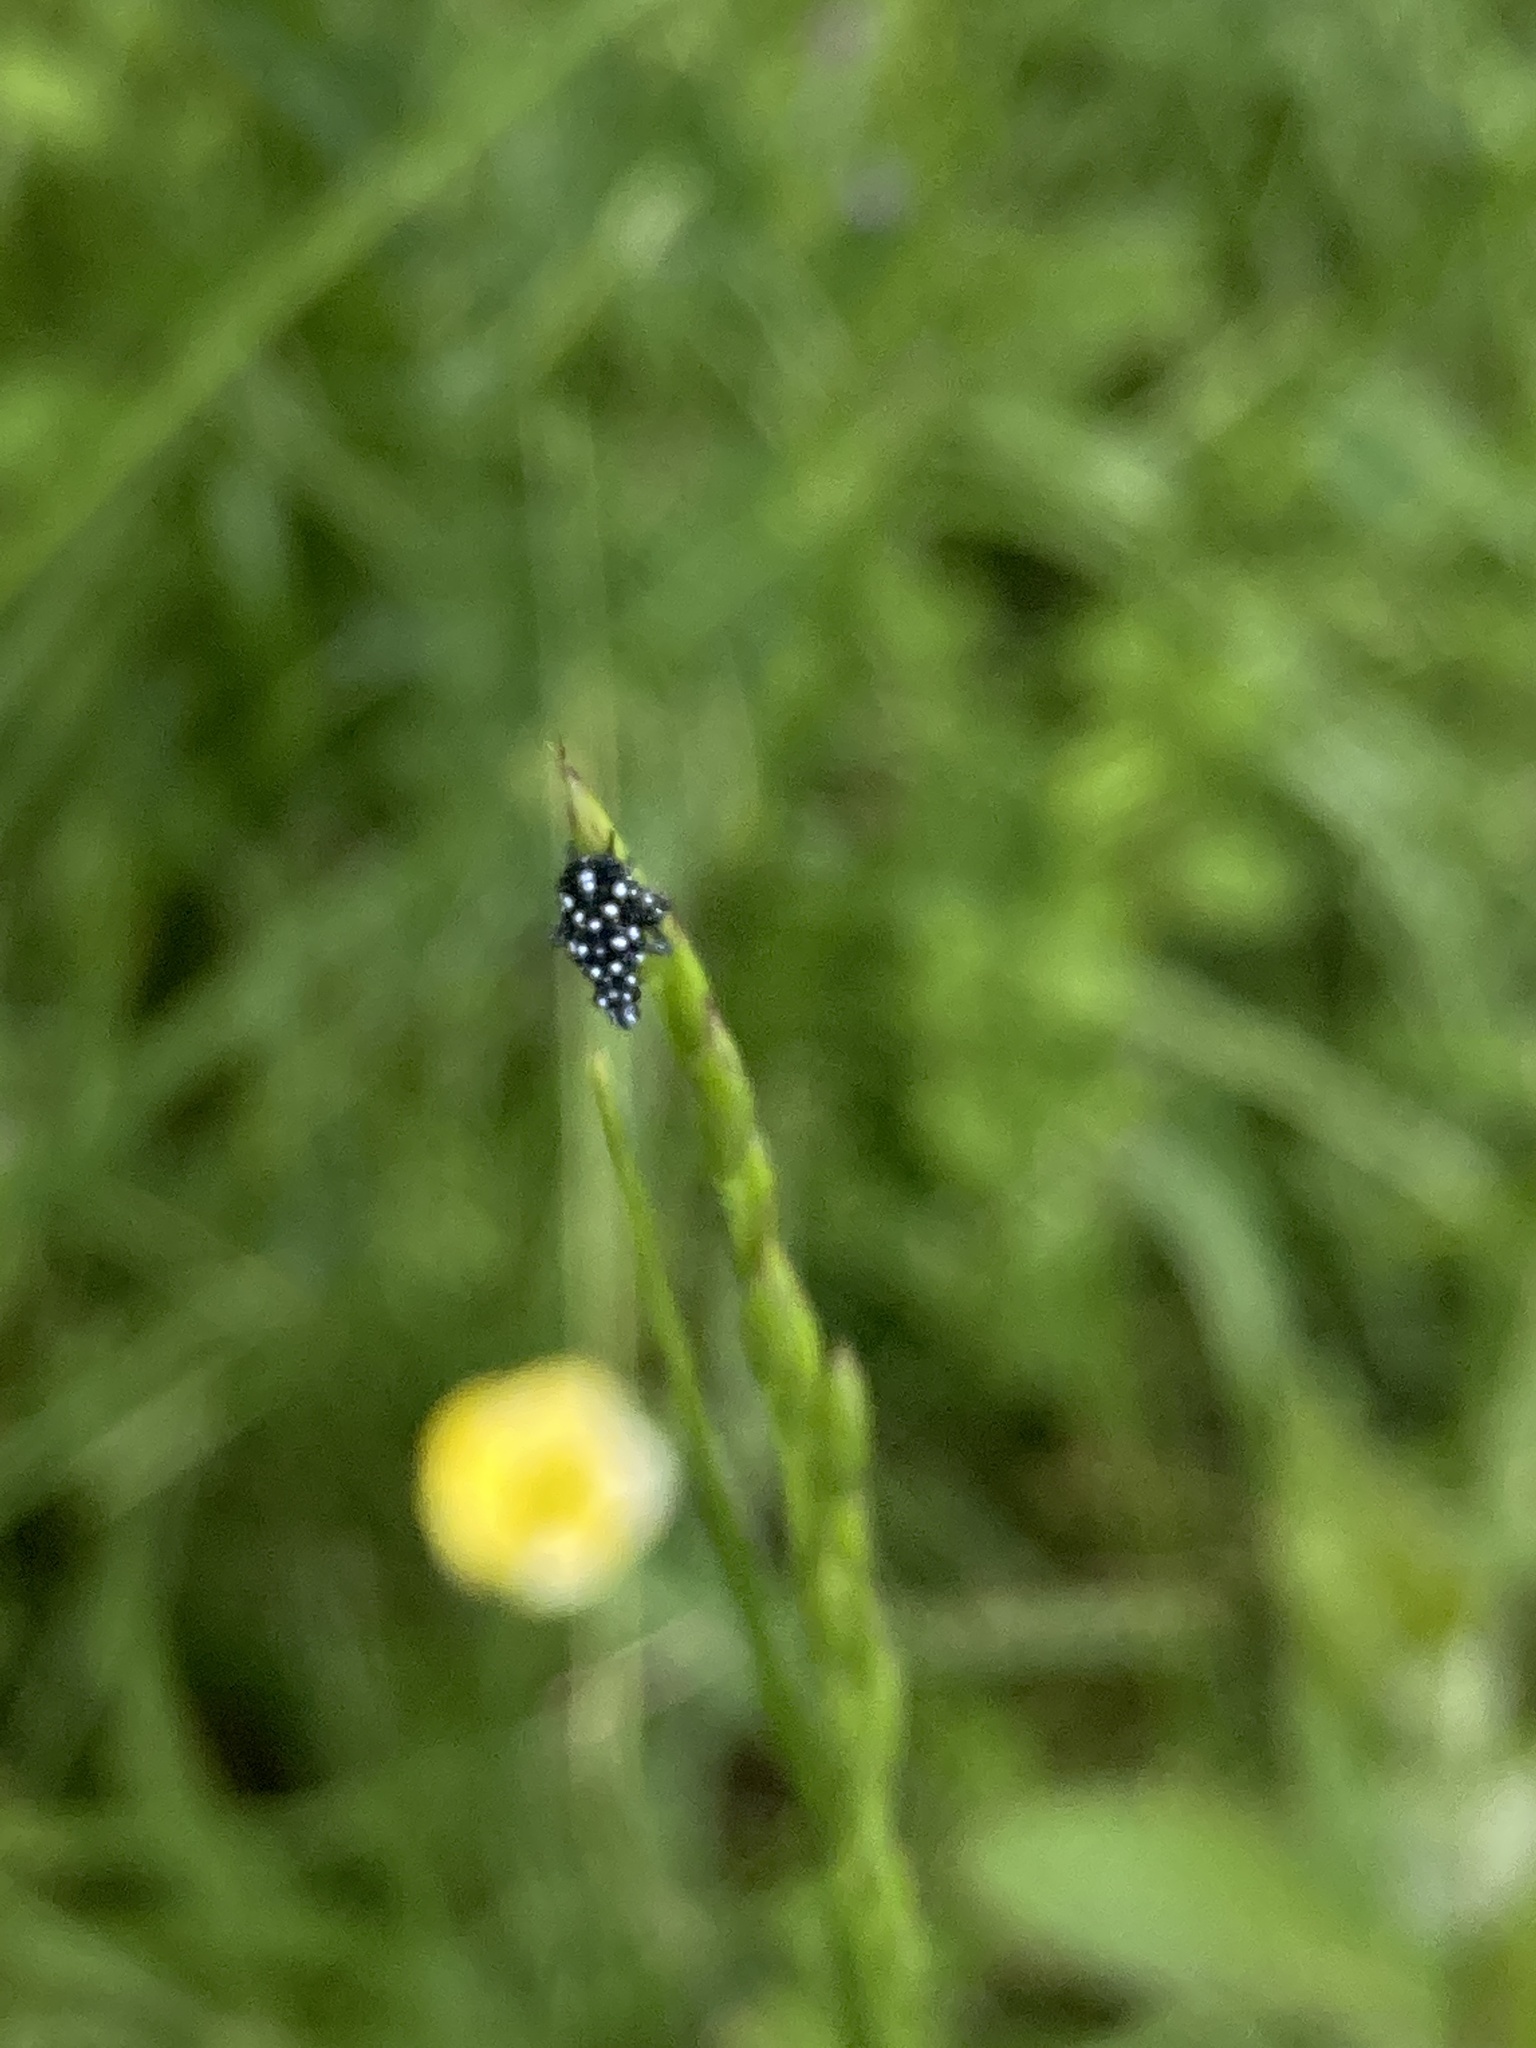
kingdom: Animalia
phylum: Arthropoda
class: Insecta
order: Hemiptera
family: Fulgoridae
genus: Lycorma
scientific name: Lycorma delicatula
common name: Spotted lanternfly
